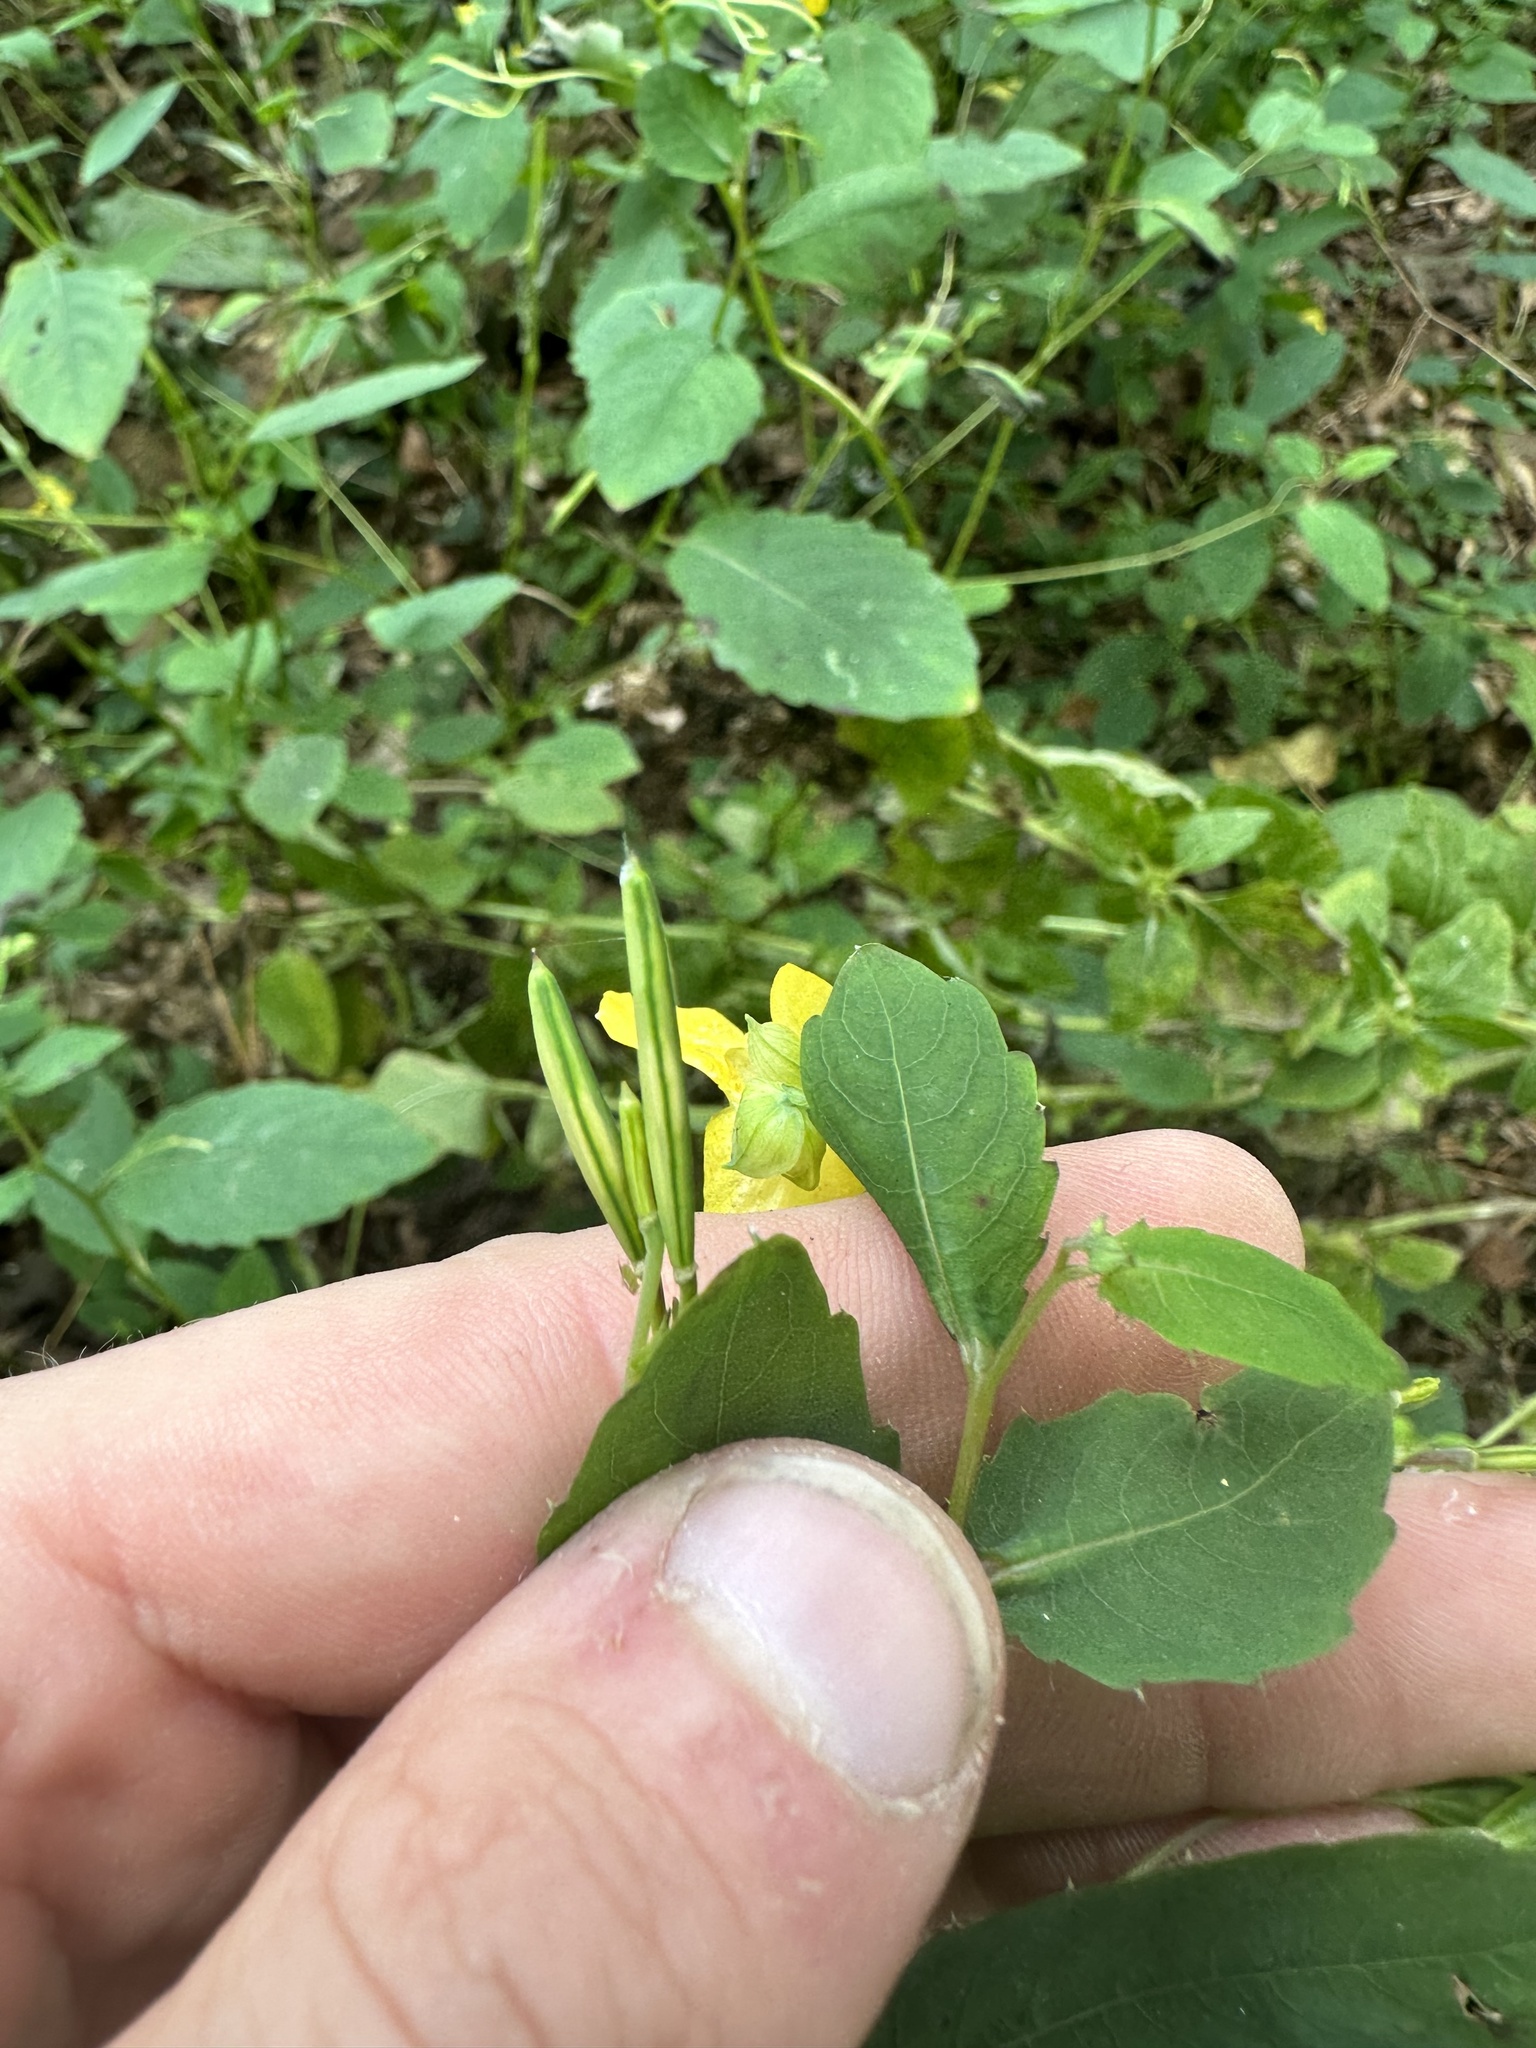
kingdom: Plantae
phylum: Tracheophyta
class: Magnoliopsida
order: Ericales
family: Balsaminaceae
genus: Impatiens
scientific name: Impatiens pallida
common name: Pale snapweed
